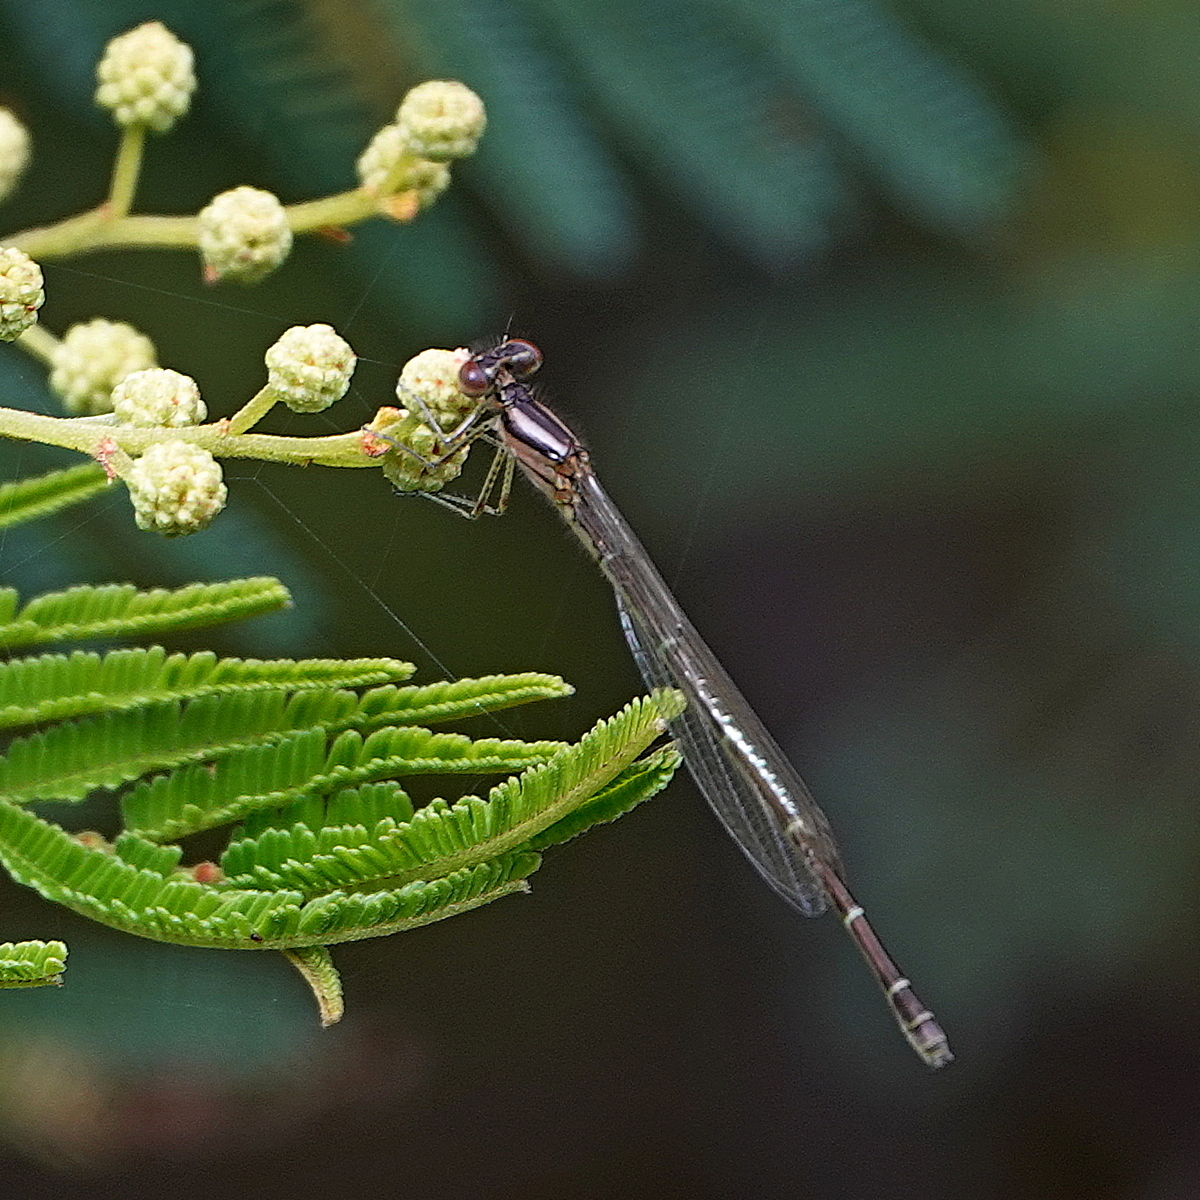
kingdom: Animalia
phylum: Arthropoda
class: Insecta
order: Odonata
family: Coenagrionidae
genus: Austroagrion
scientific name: Austroagrion watsoni
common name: Eastern billabongfly
